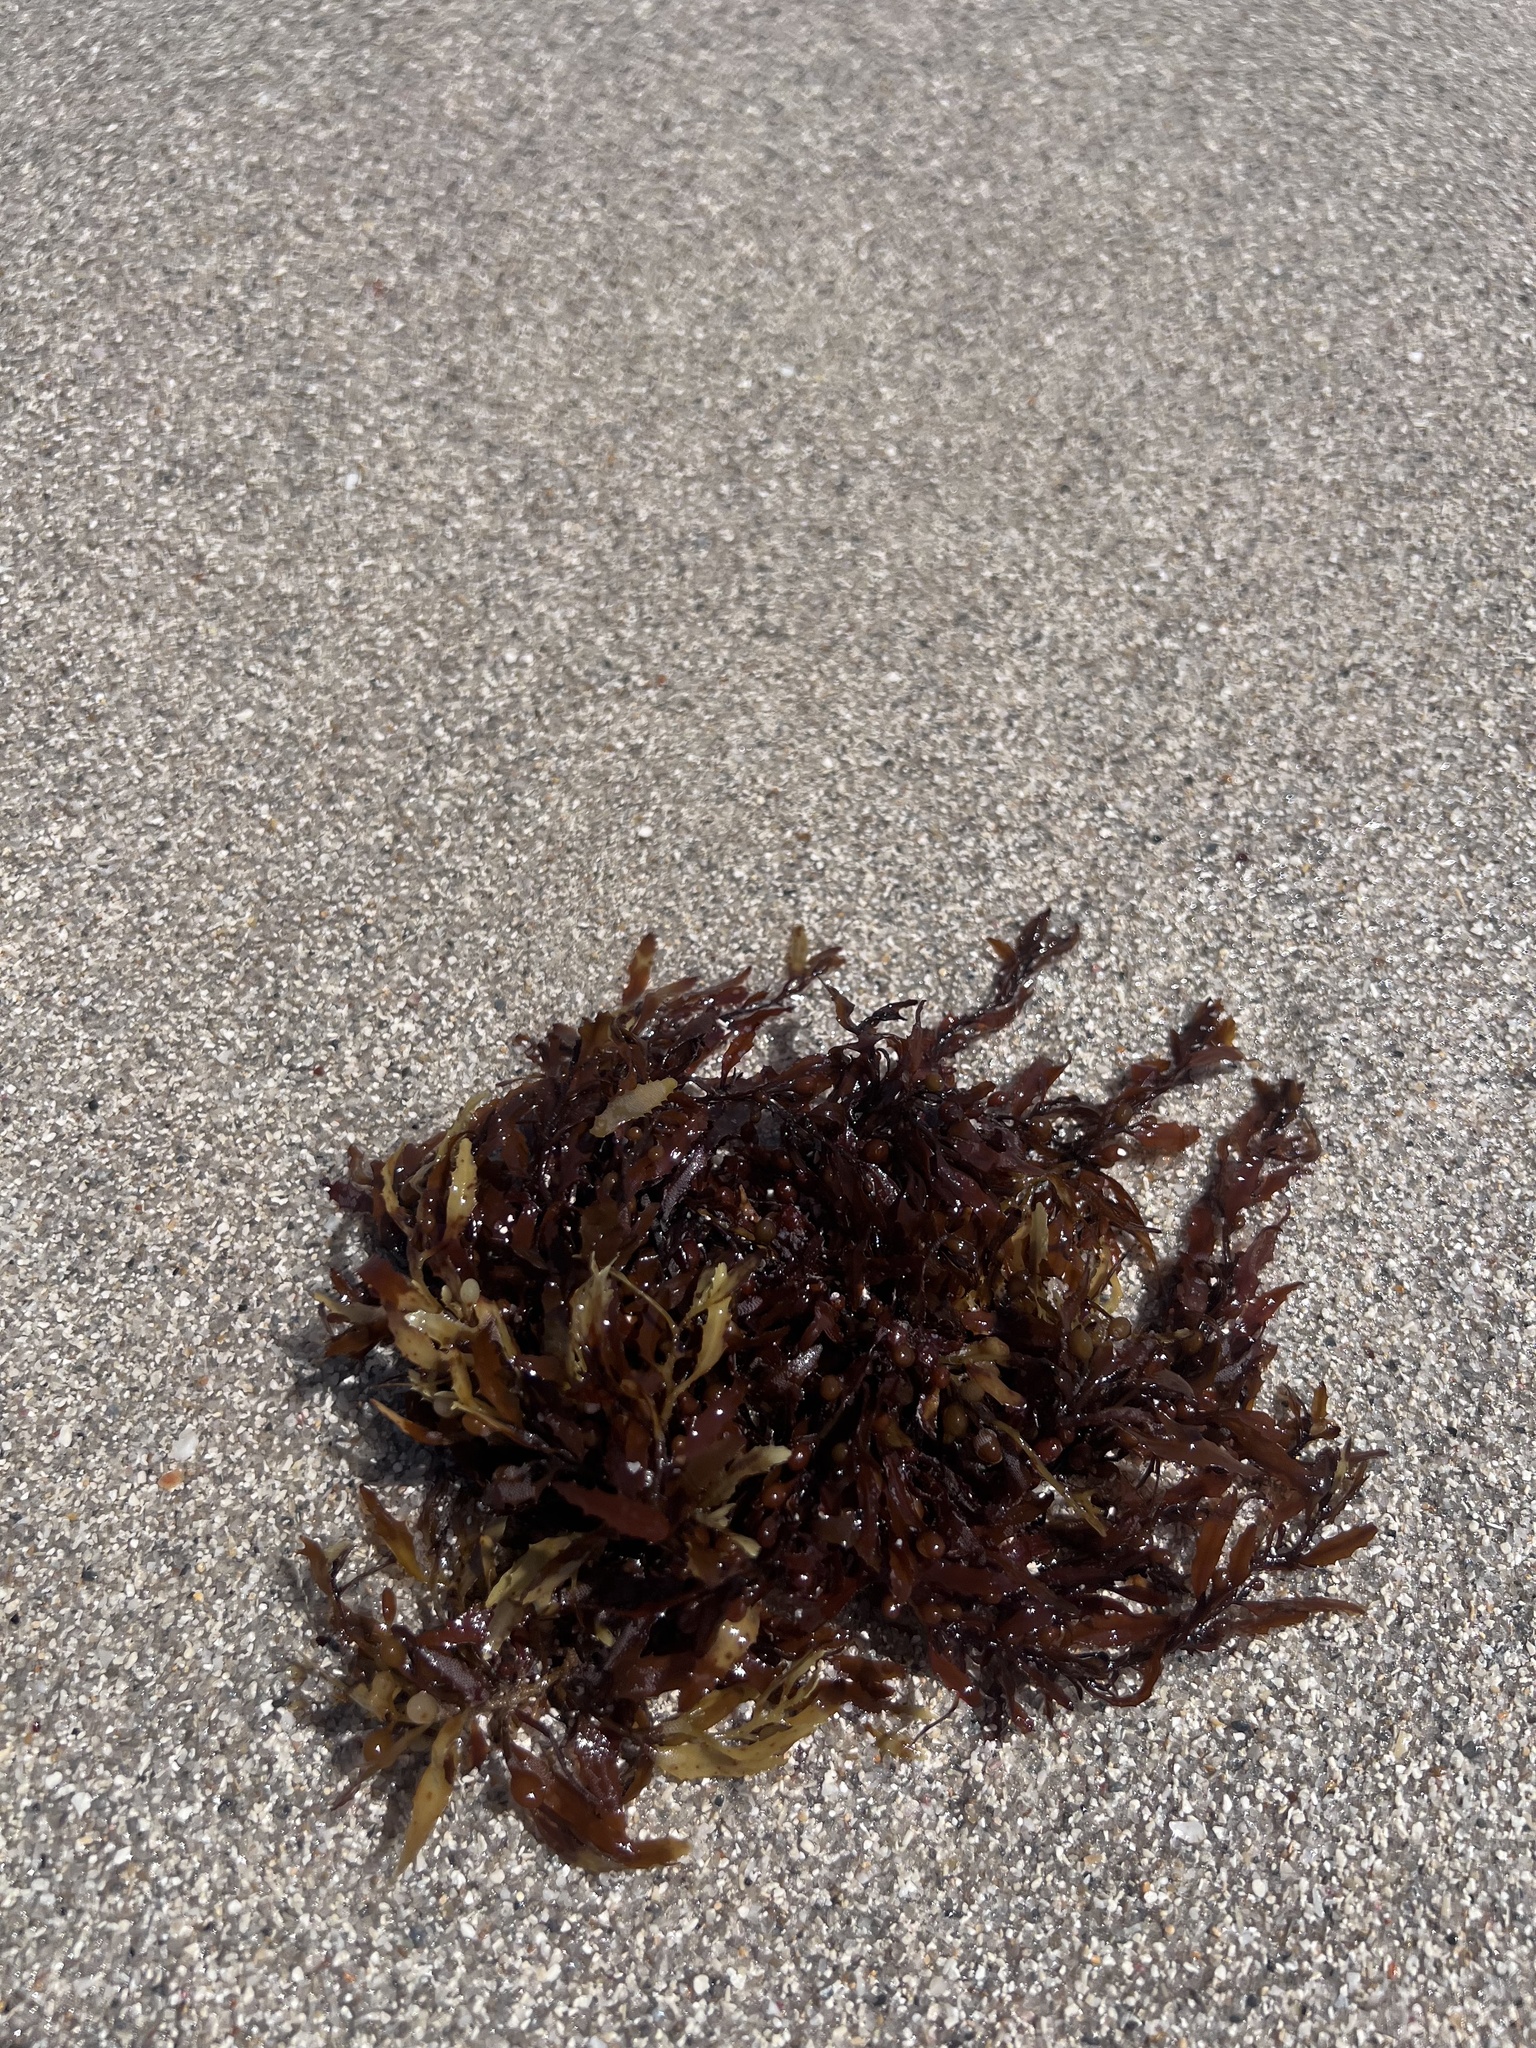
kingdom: Chromista
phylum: Ochrophyta
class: Phaeophyceae
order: Fucales
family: Sargassaceae
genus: Sargassum
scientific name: Sargassum fluitans
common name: Sargassum seaweed
